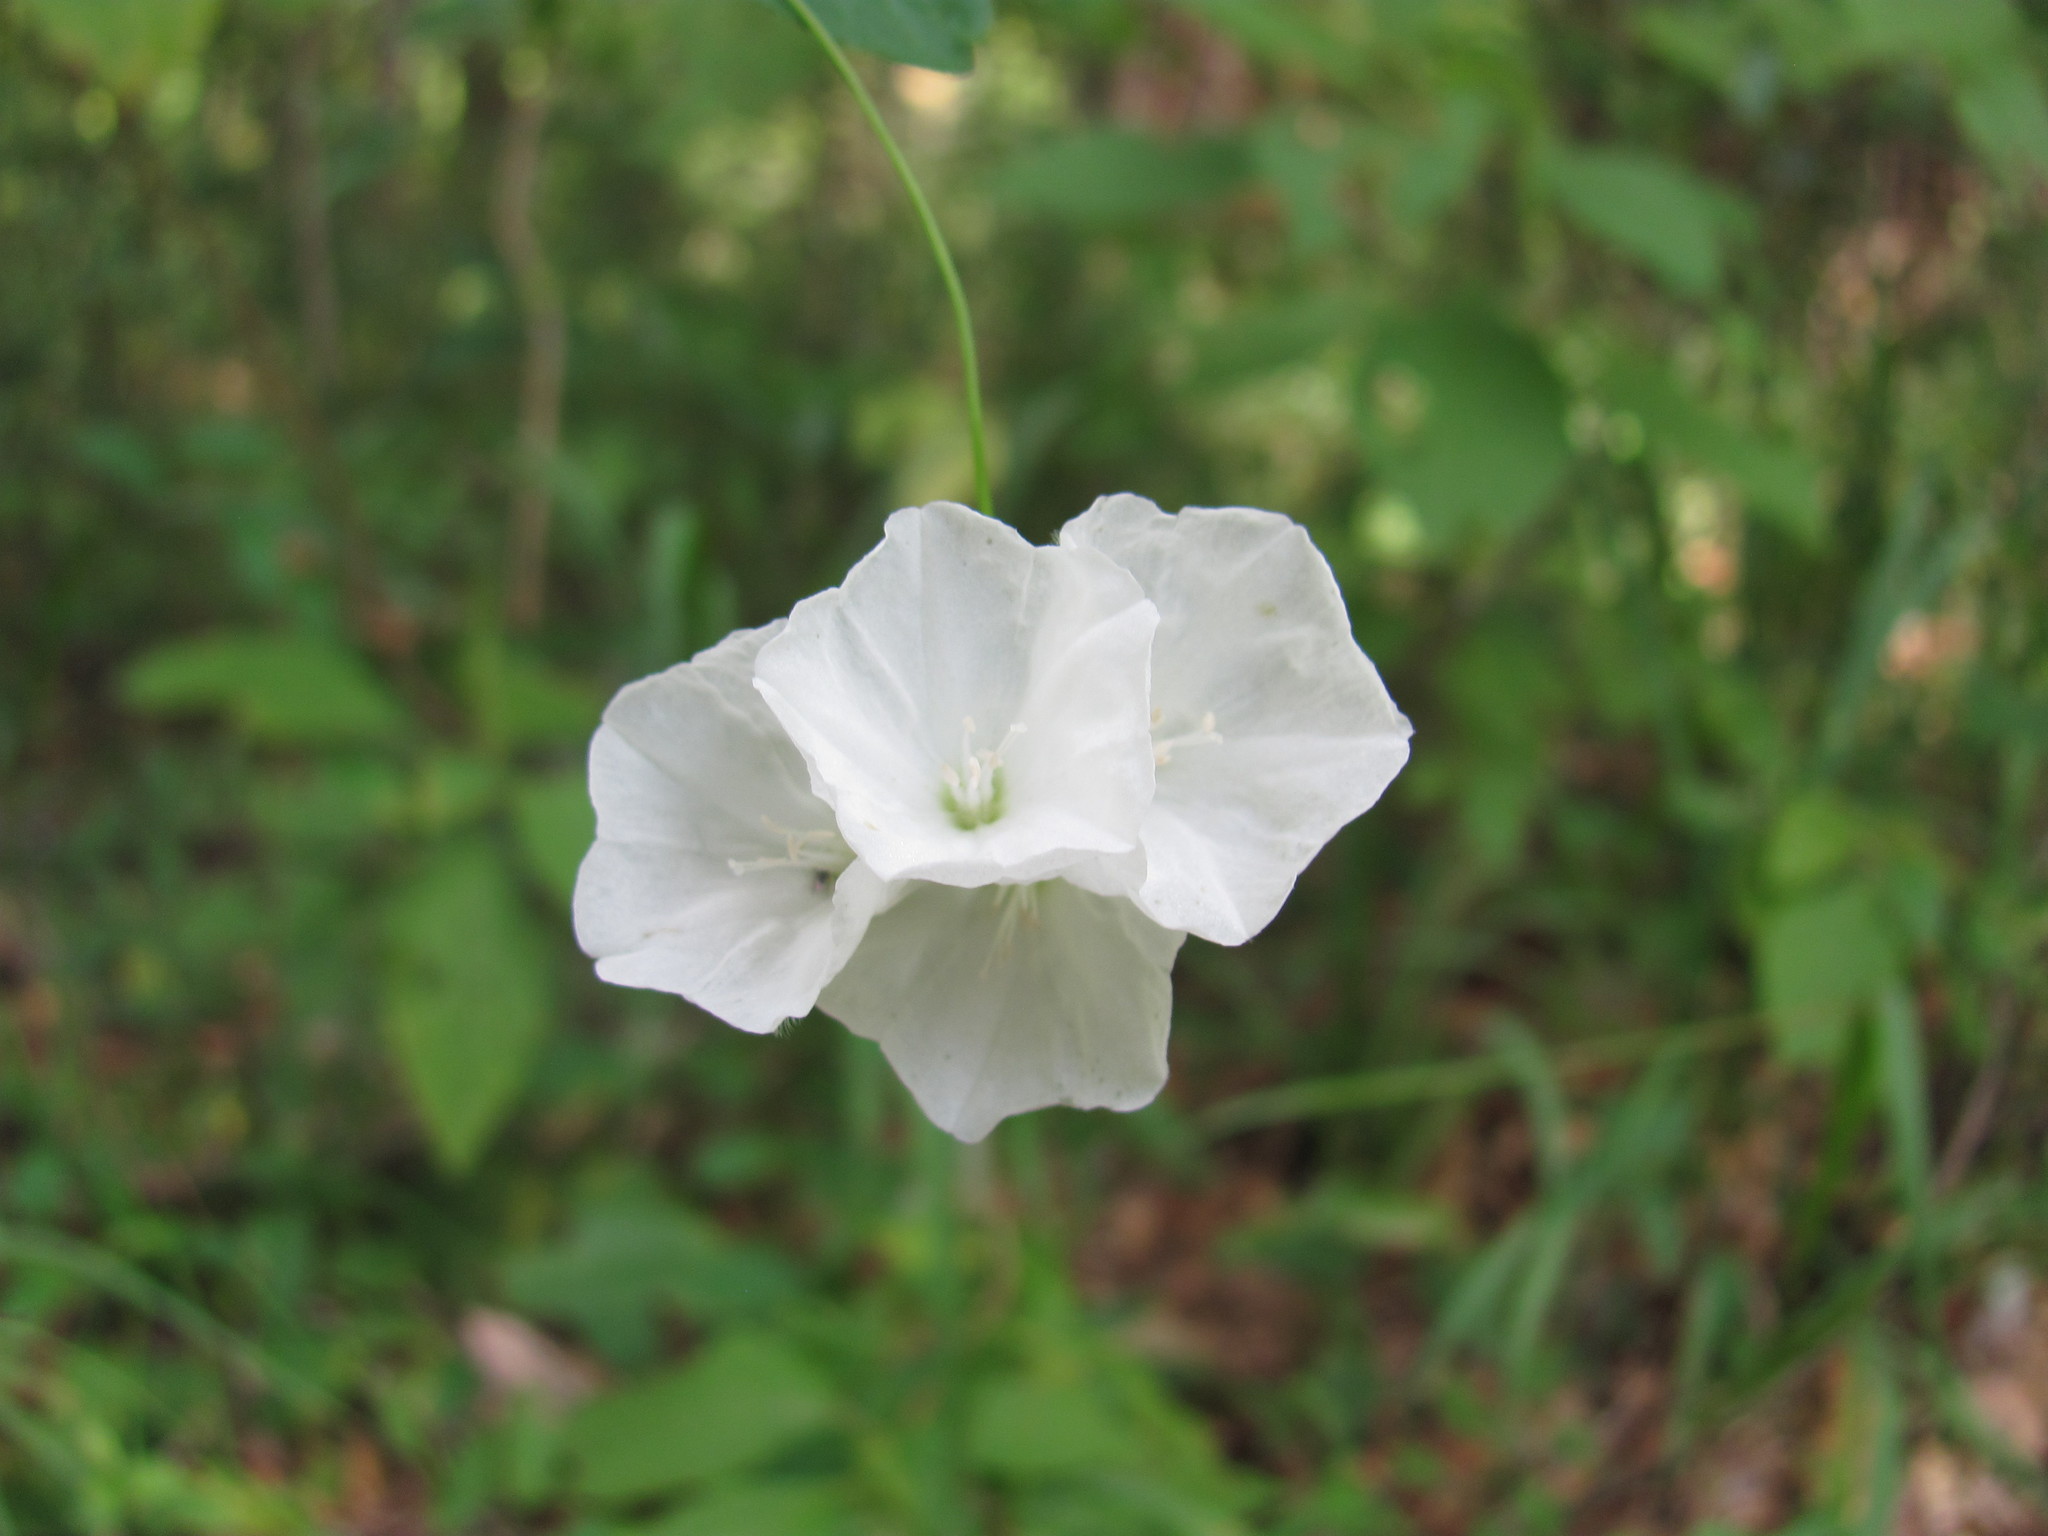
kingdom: Plantae
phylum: Tracheophyta
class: Magnoliopsida
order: Solanales
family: Convolvulaceae
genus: Stylisma
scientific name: Stylisma humistrata
